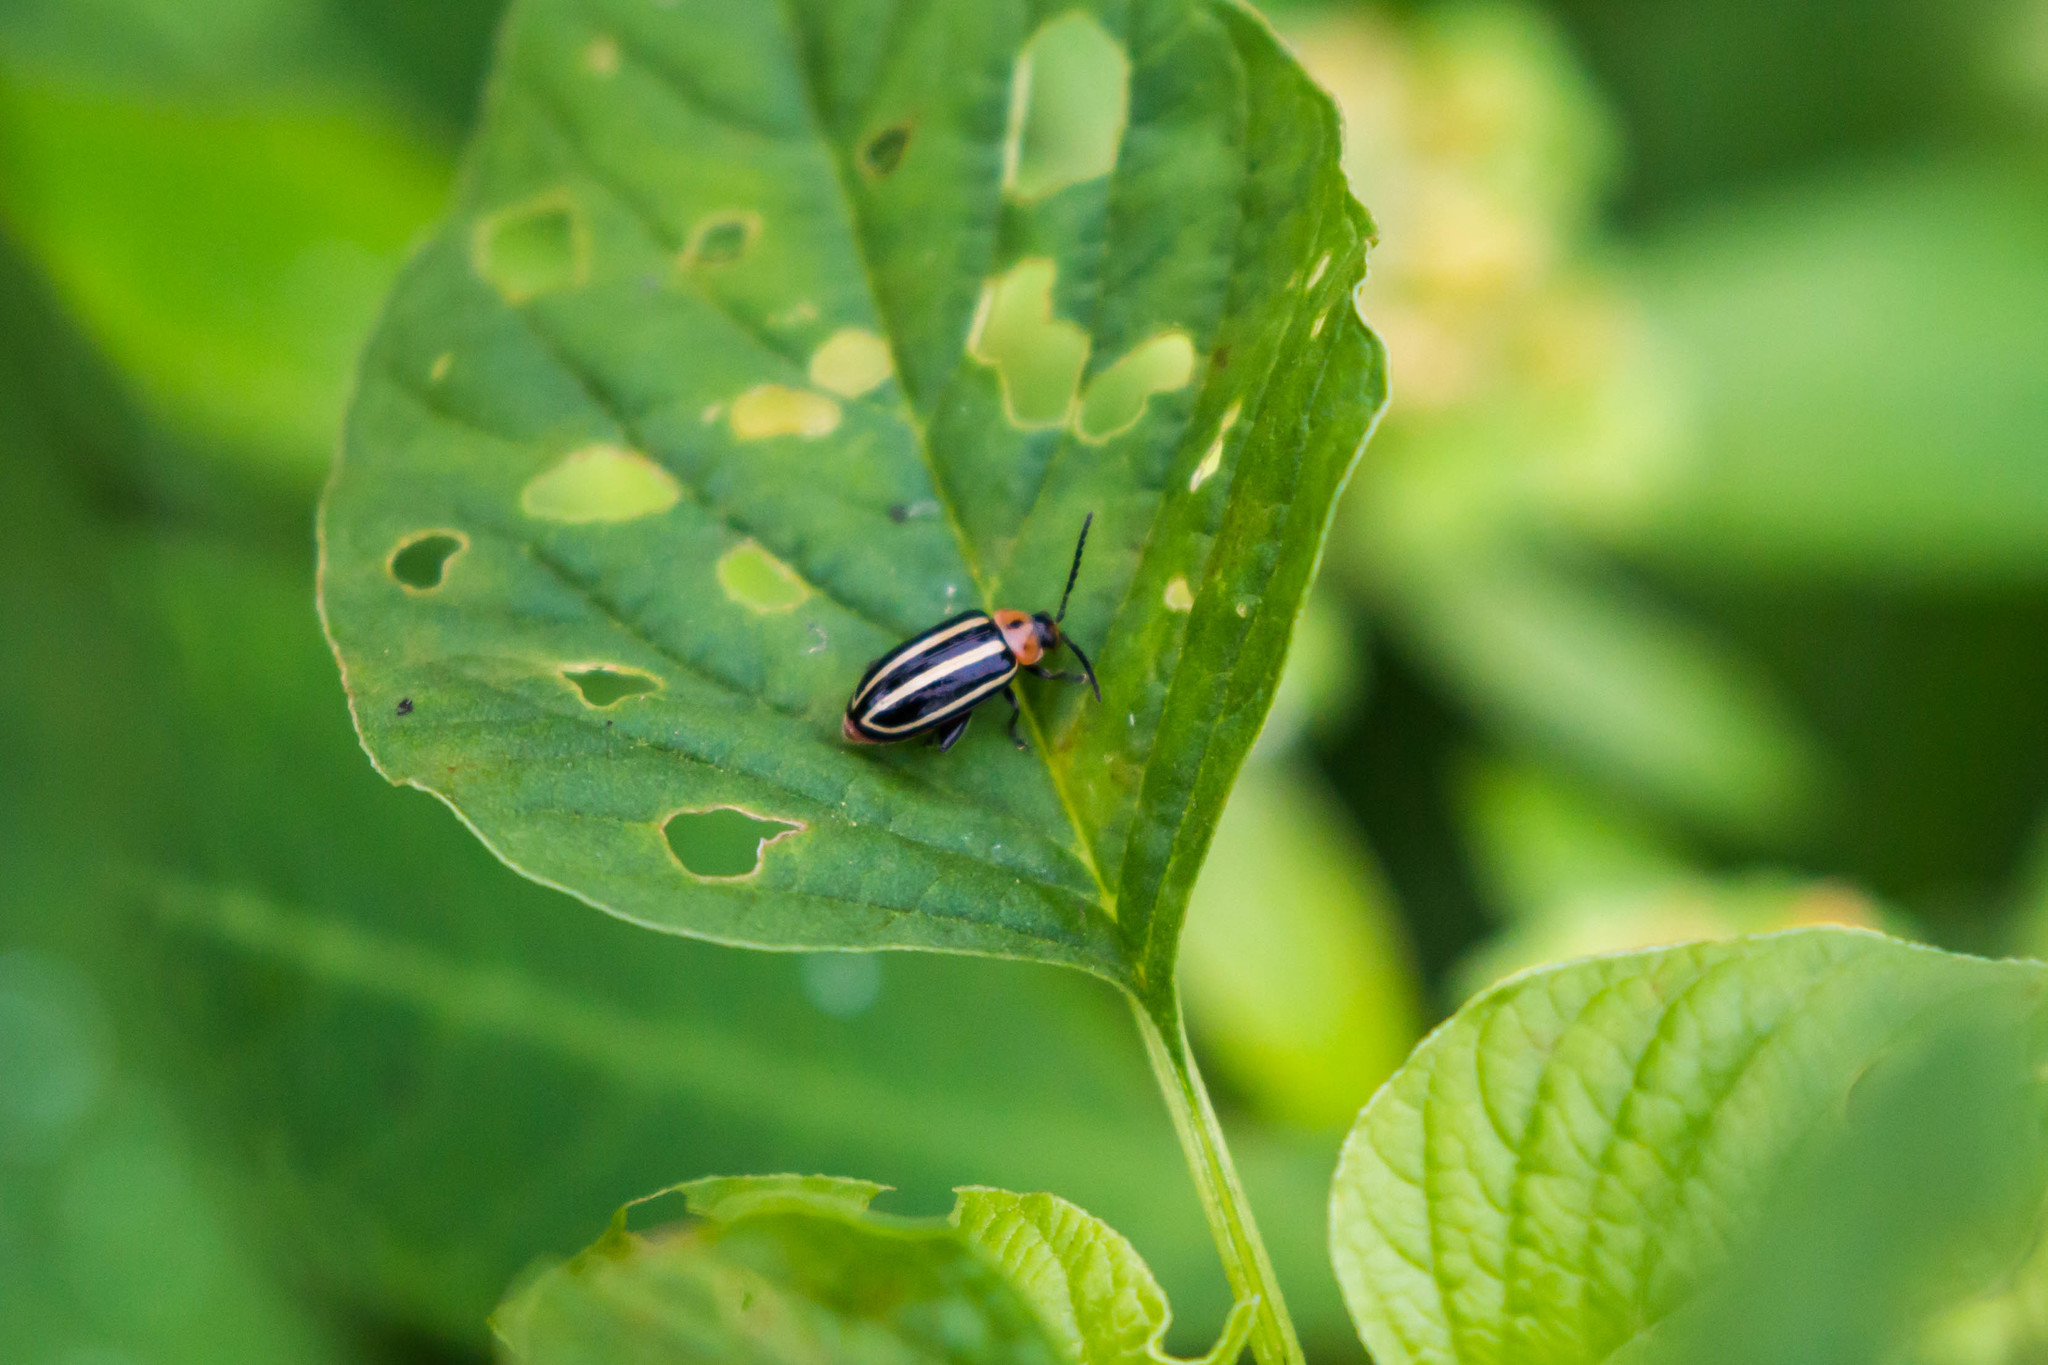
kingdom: Animalia
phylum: Arthropoda
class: Insecta
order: Coleoptera
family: Chrysomelidae
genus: Disonycha
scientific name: Disonycha glabrata
